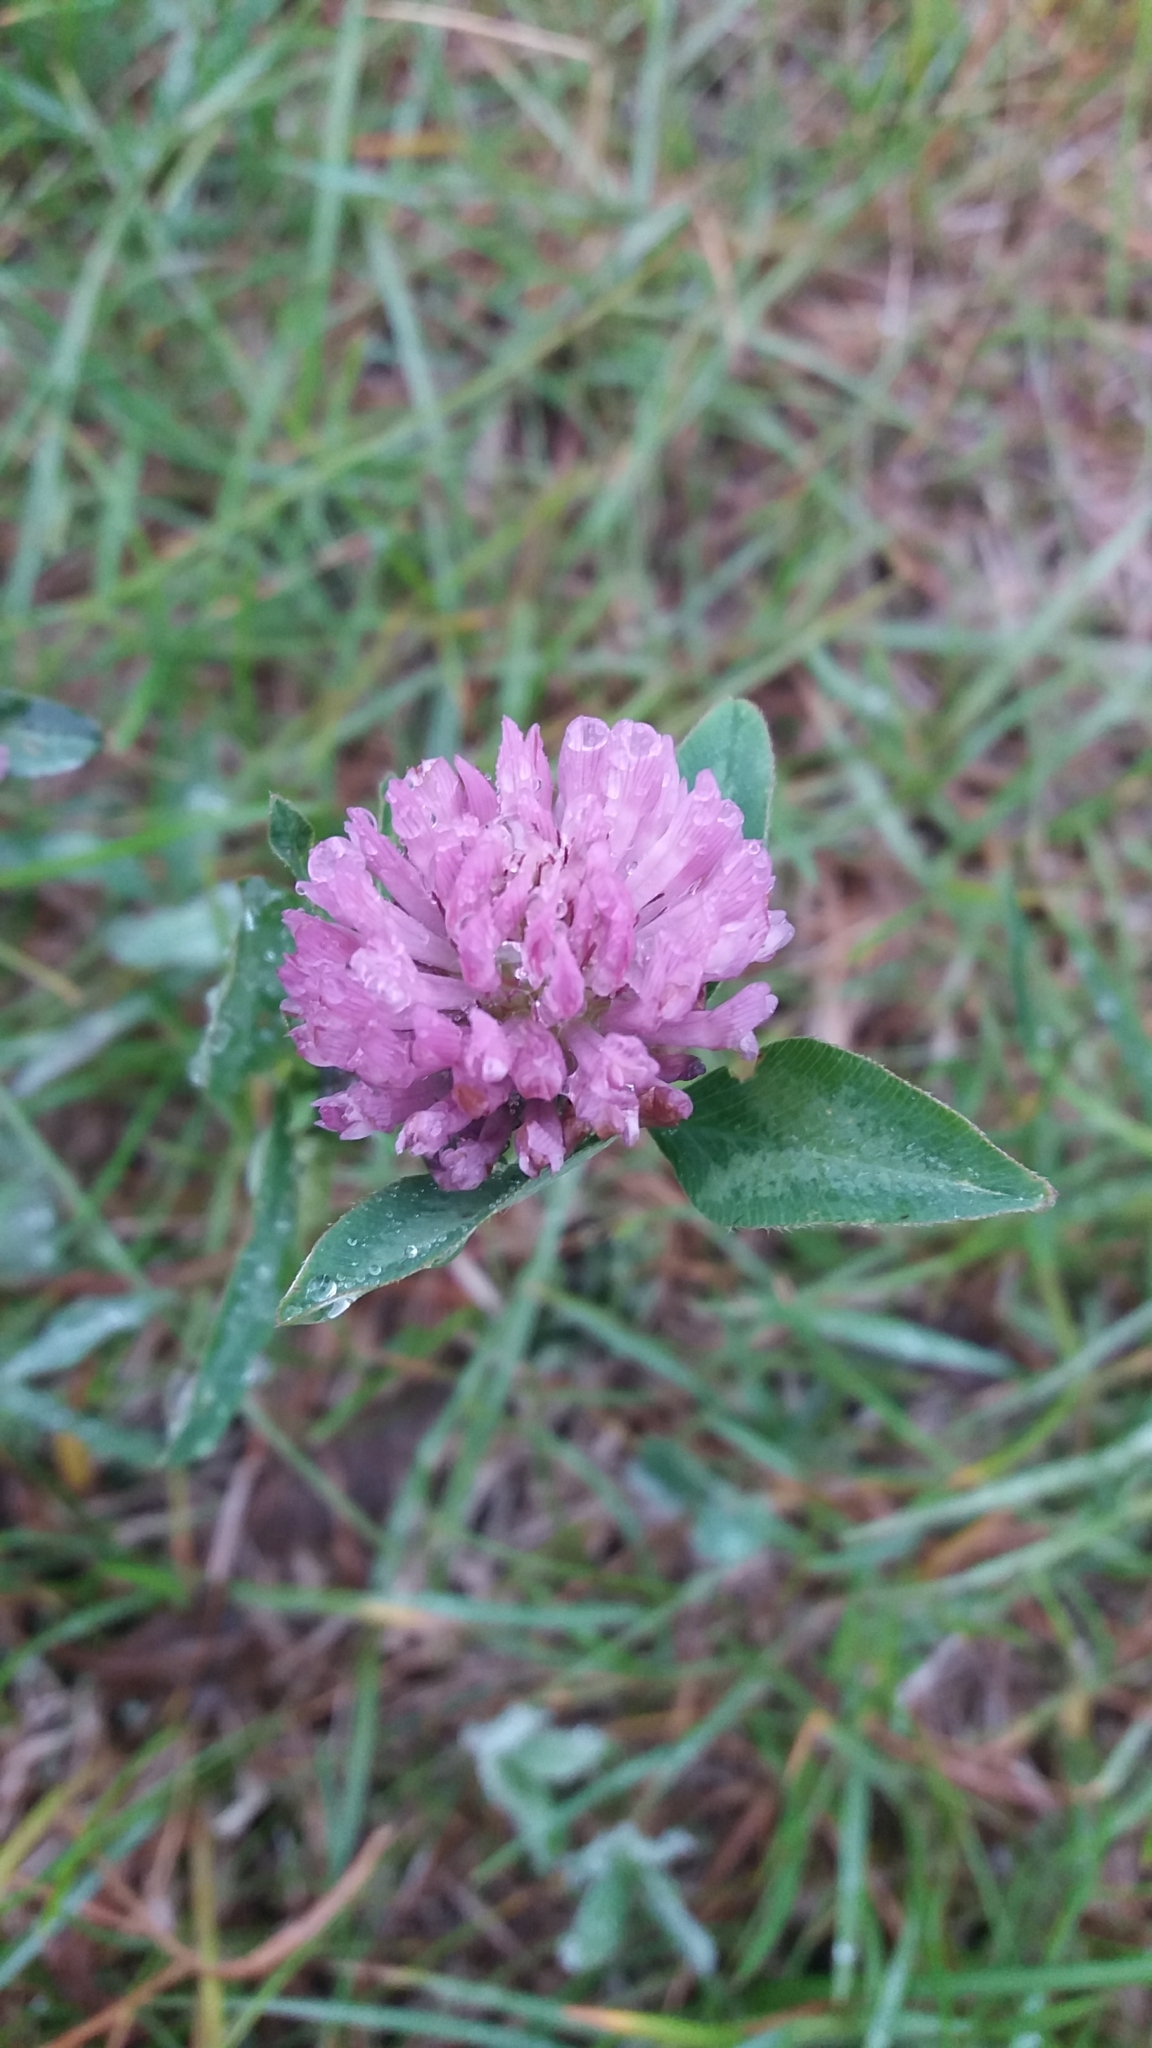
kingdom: Plantae
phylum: Tracheophyta
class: Magnoliopsida
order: Fabales
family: Fabaceae
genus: Trifolium
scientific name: Trifolium pratense
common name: Red clover
